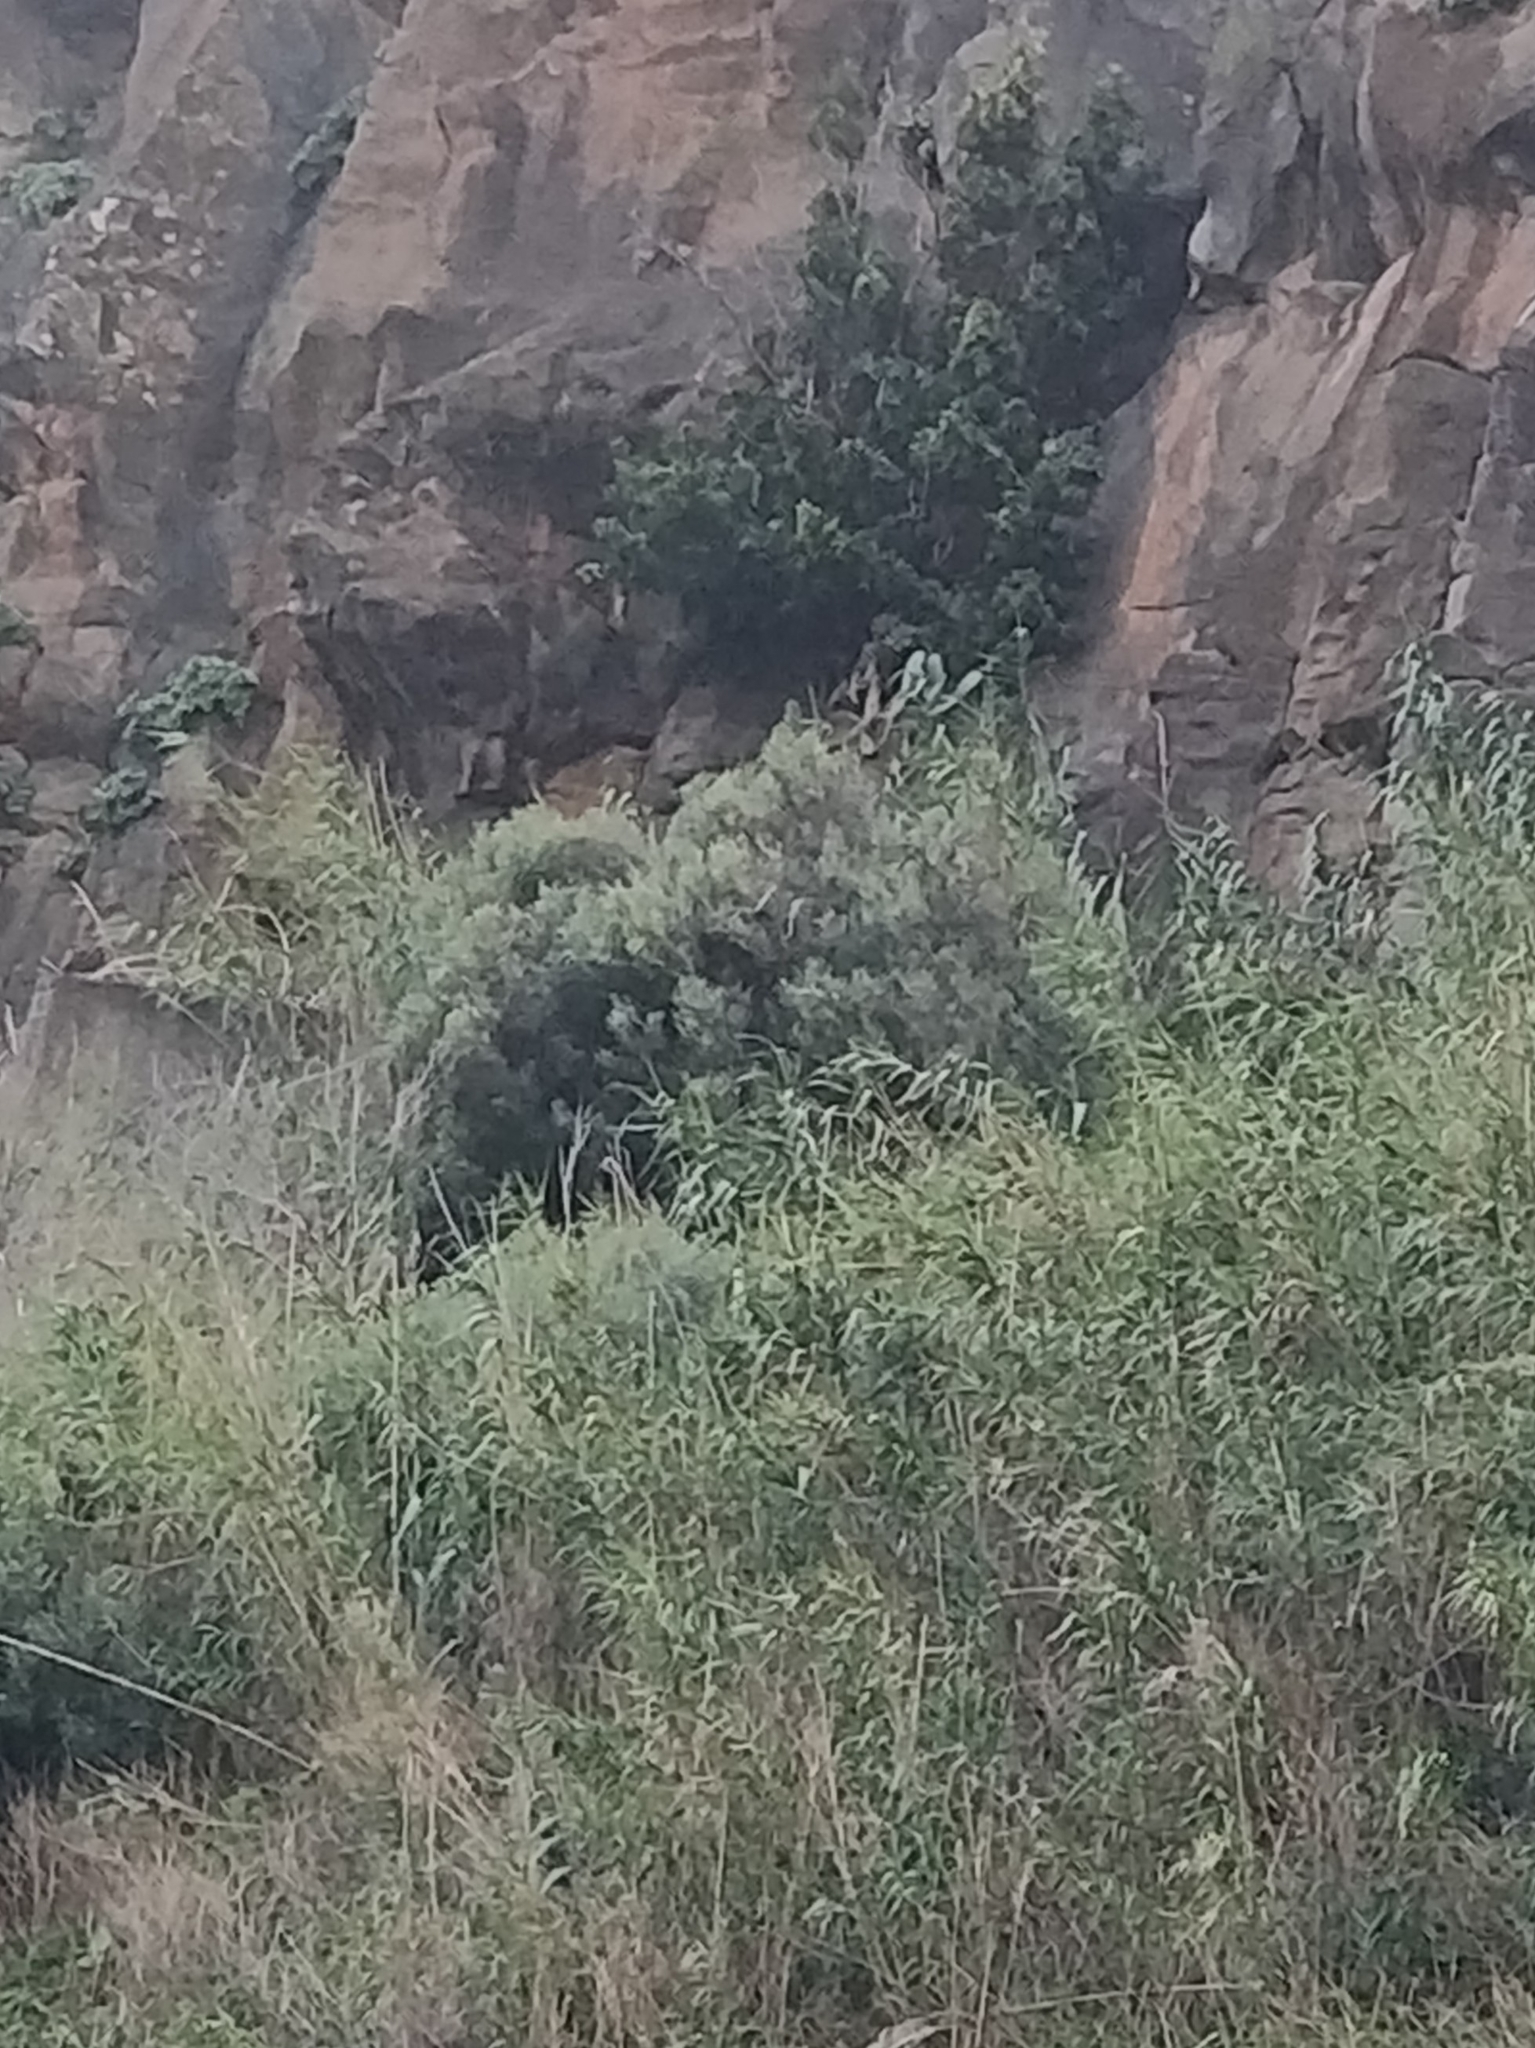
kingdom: Plantae
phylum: Tracheophyta
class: Magnoliopsida
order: Lamiales
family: Oleaceae
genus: Olea
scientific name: Olea europaea
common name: Olive
